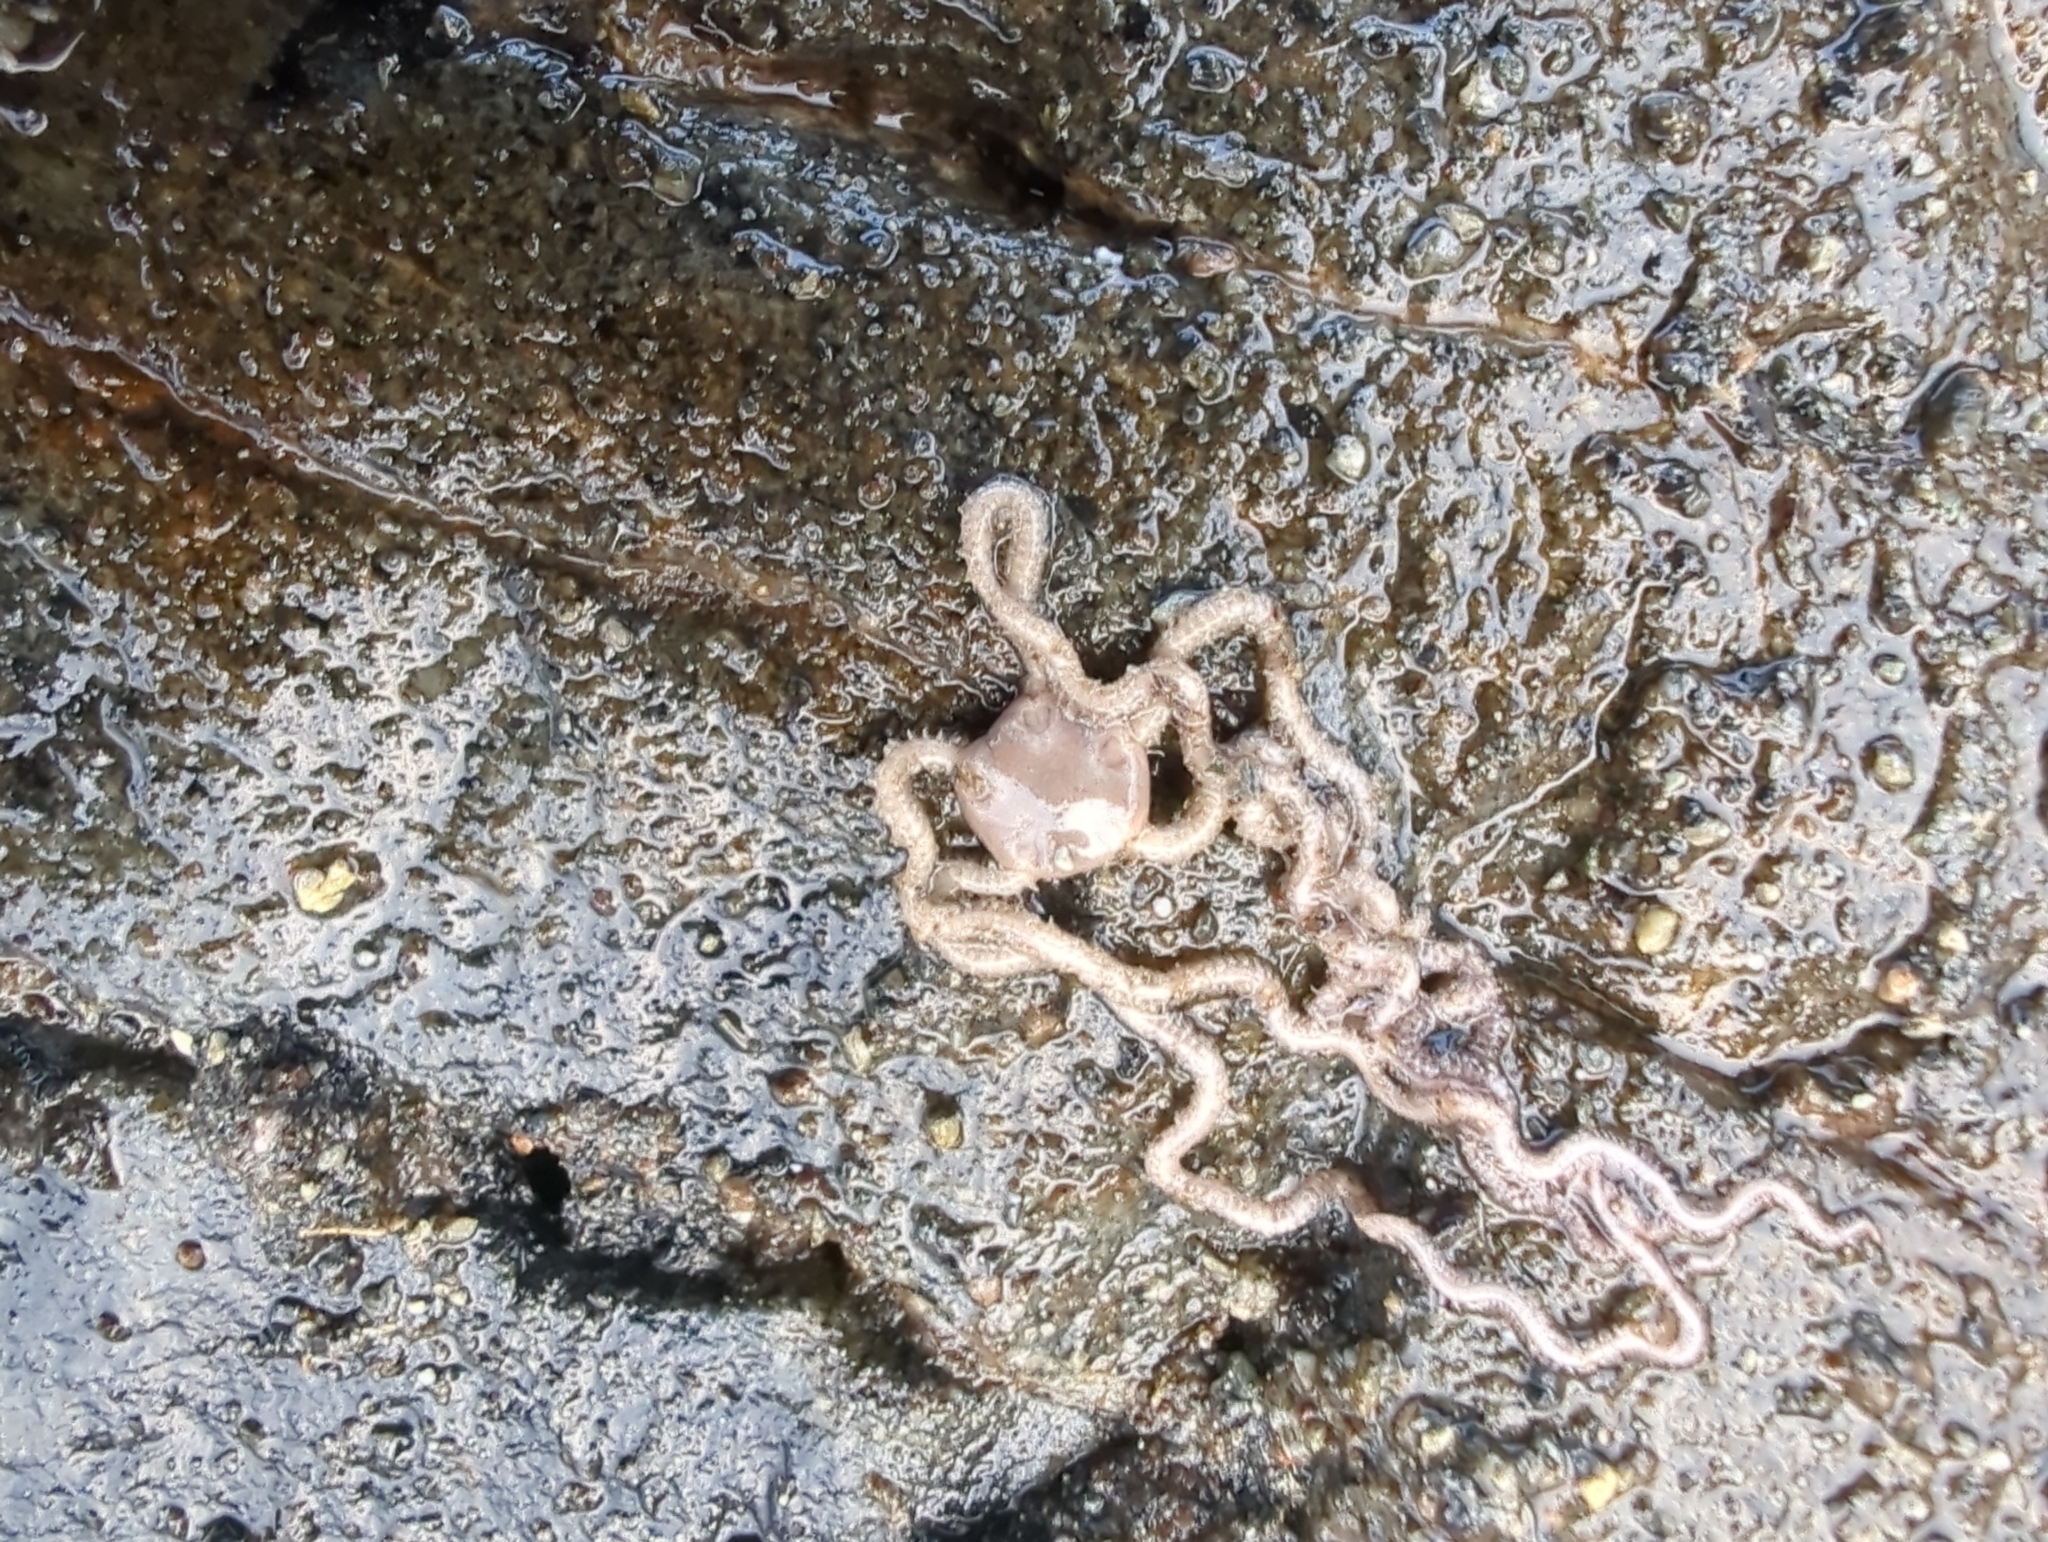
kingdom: Animalia
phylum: Echinodermata
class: Ophiuroidea
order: Amphilepidida
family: Amphiuridae
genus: Amphiodia
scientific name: Amphiodia occidentalis
